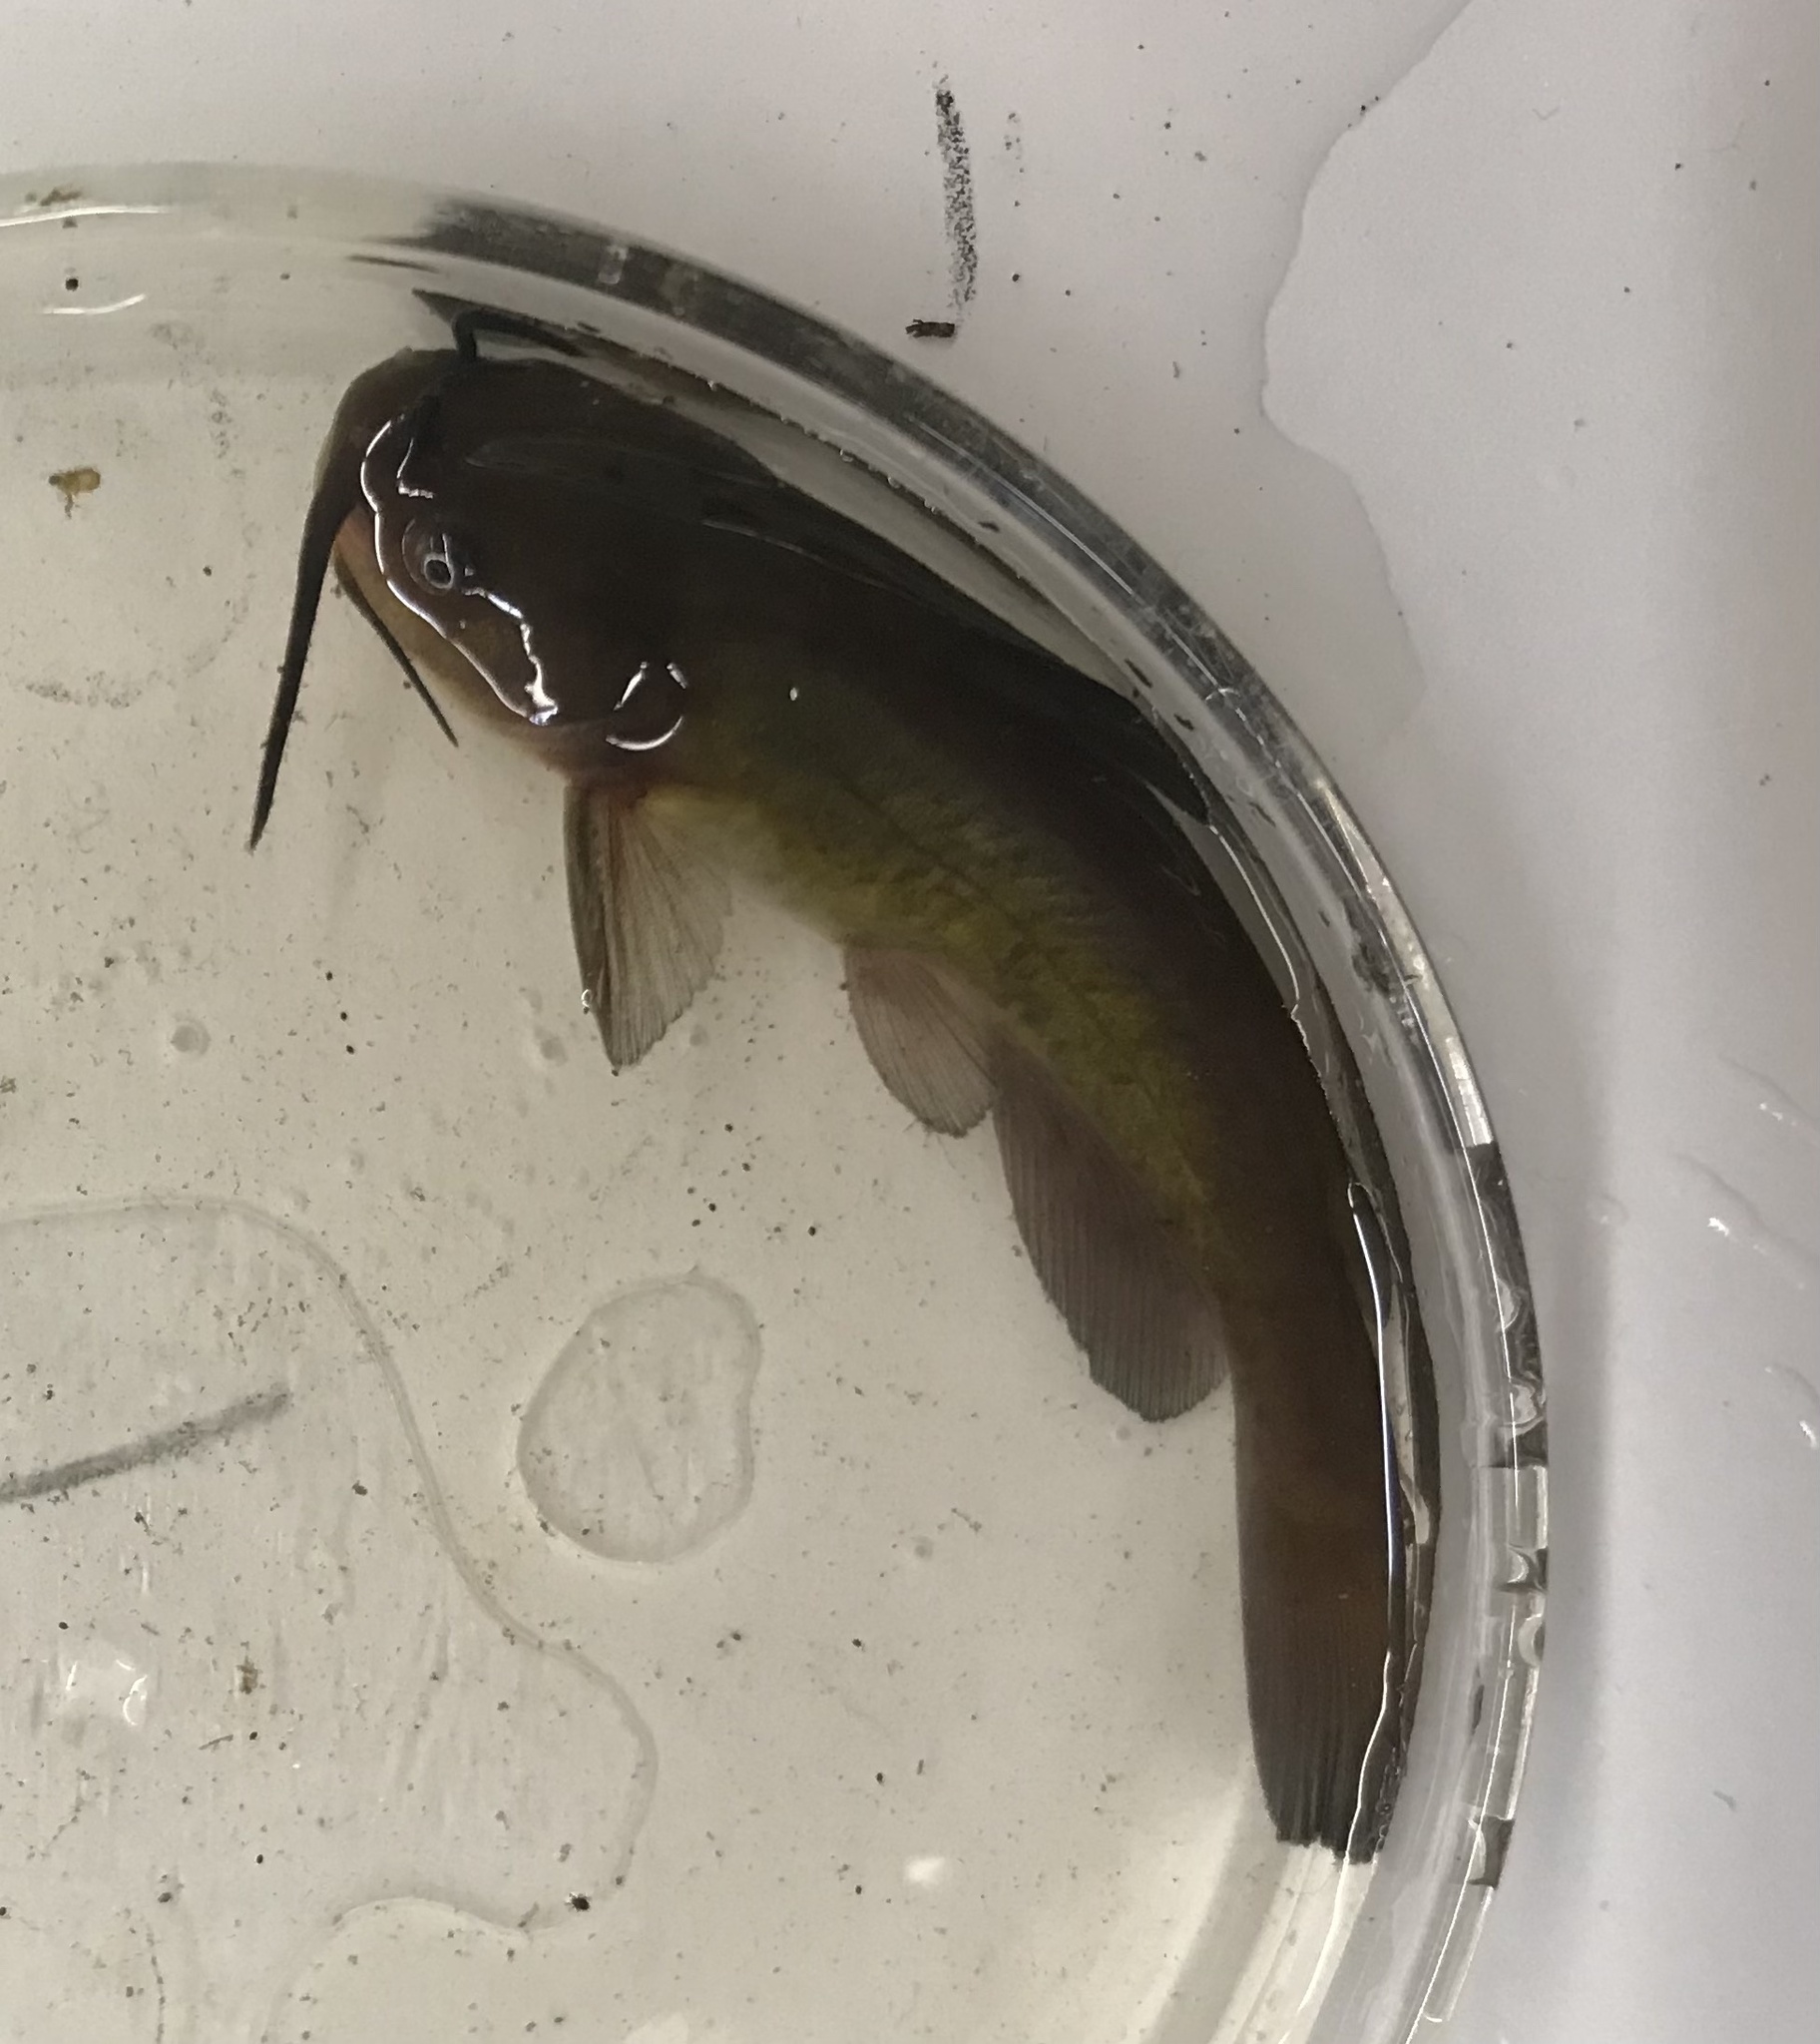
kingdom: Animalia
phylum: Chordata
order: Siluriformes
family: Ictaluridae
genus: Ameiurus
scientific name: Ameiurus nebulosus
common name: Brown bullhead
